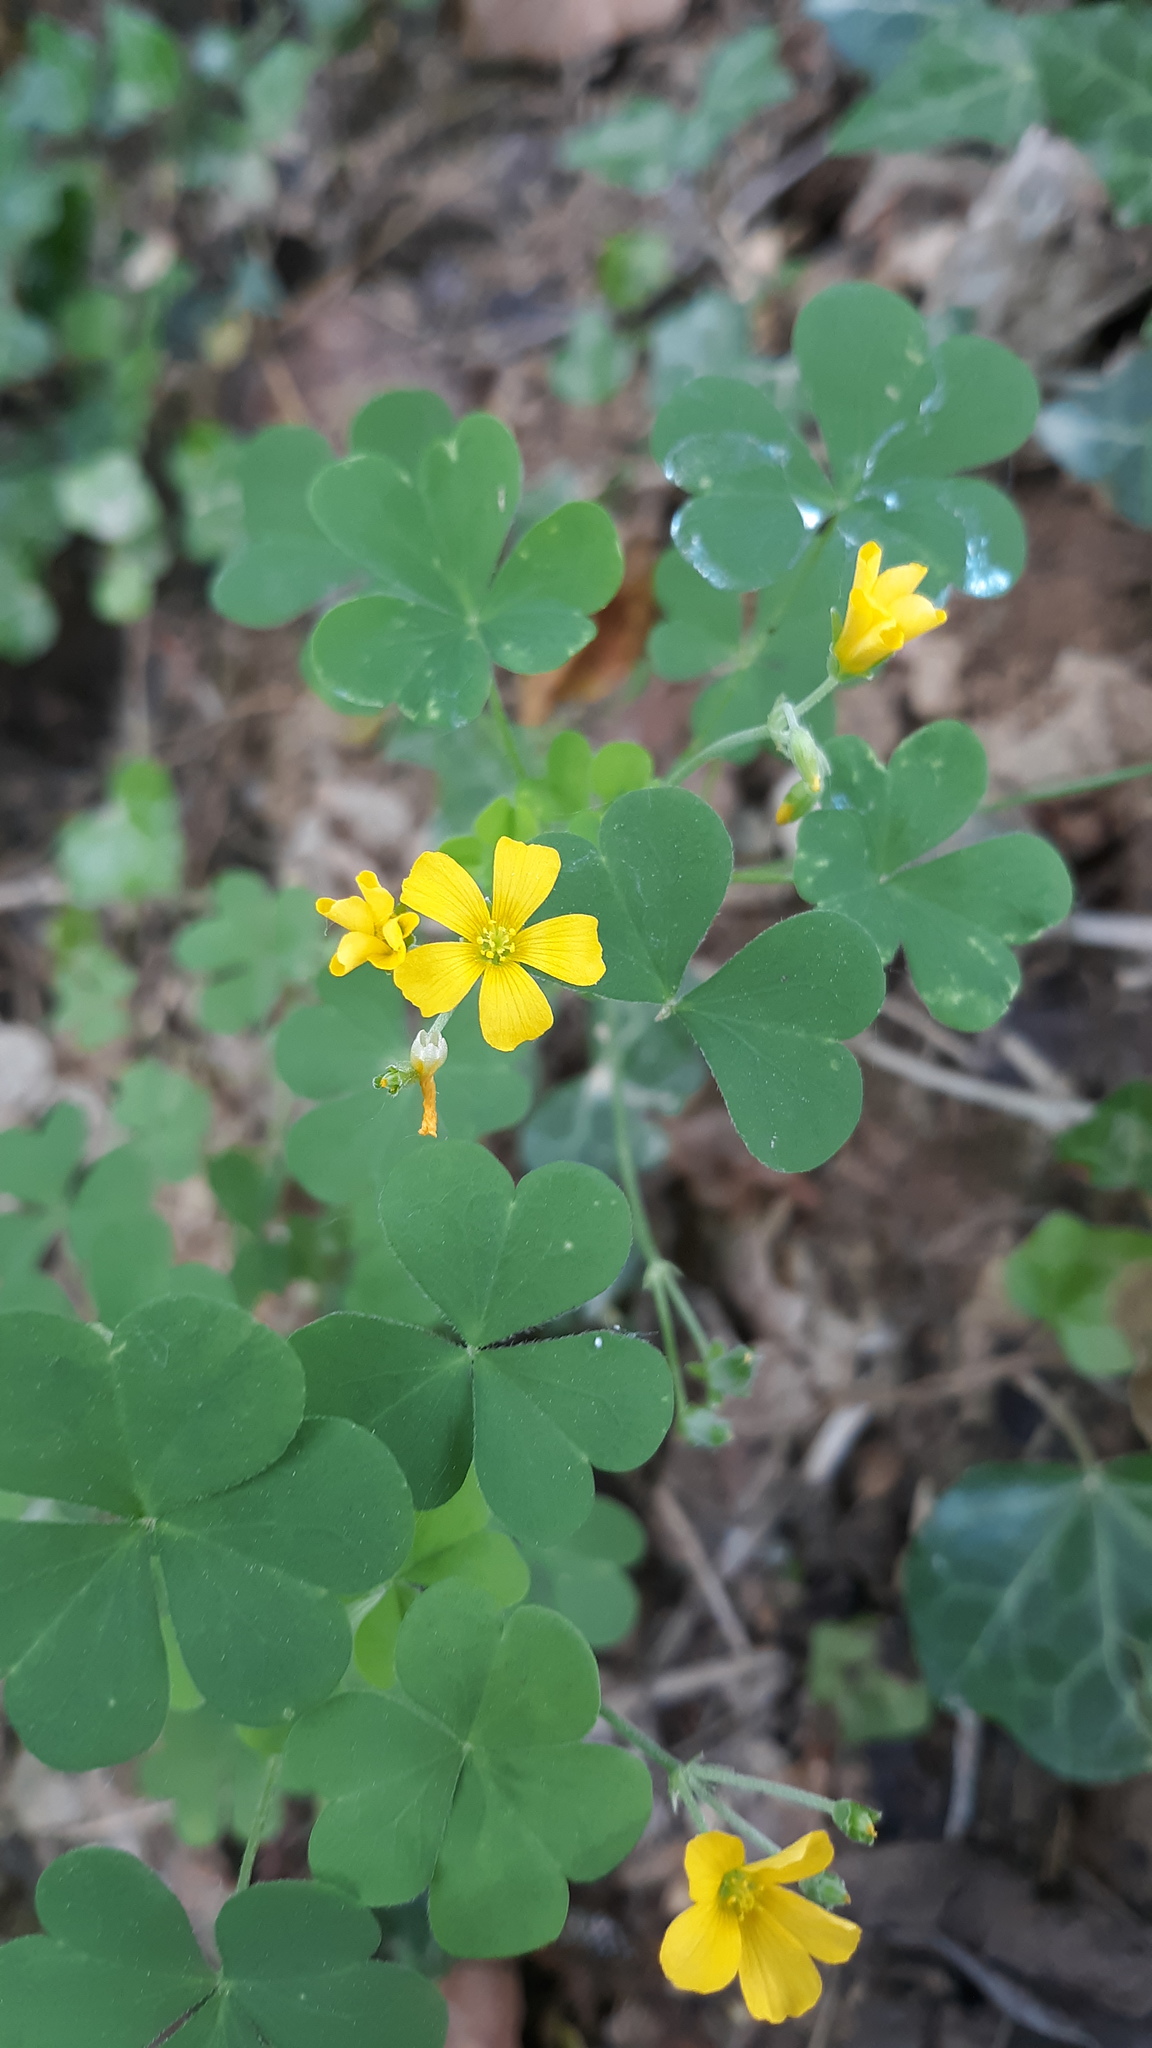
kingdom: Plantae
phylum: Tracheophyta
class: Magnoliopsida
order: Oxalidales
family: Oxalidaceae
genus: Oxalis
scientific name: Oxalis stricta
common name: Upright yellow-sorrel
